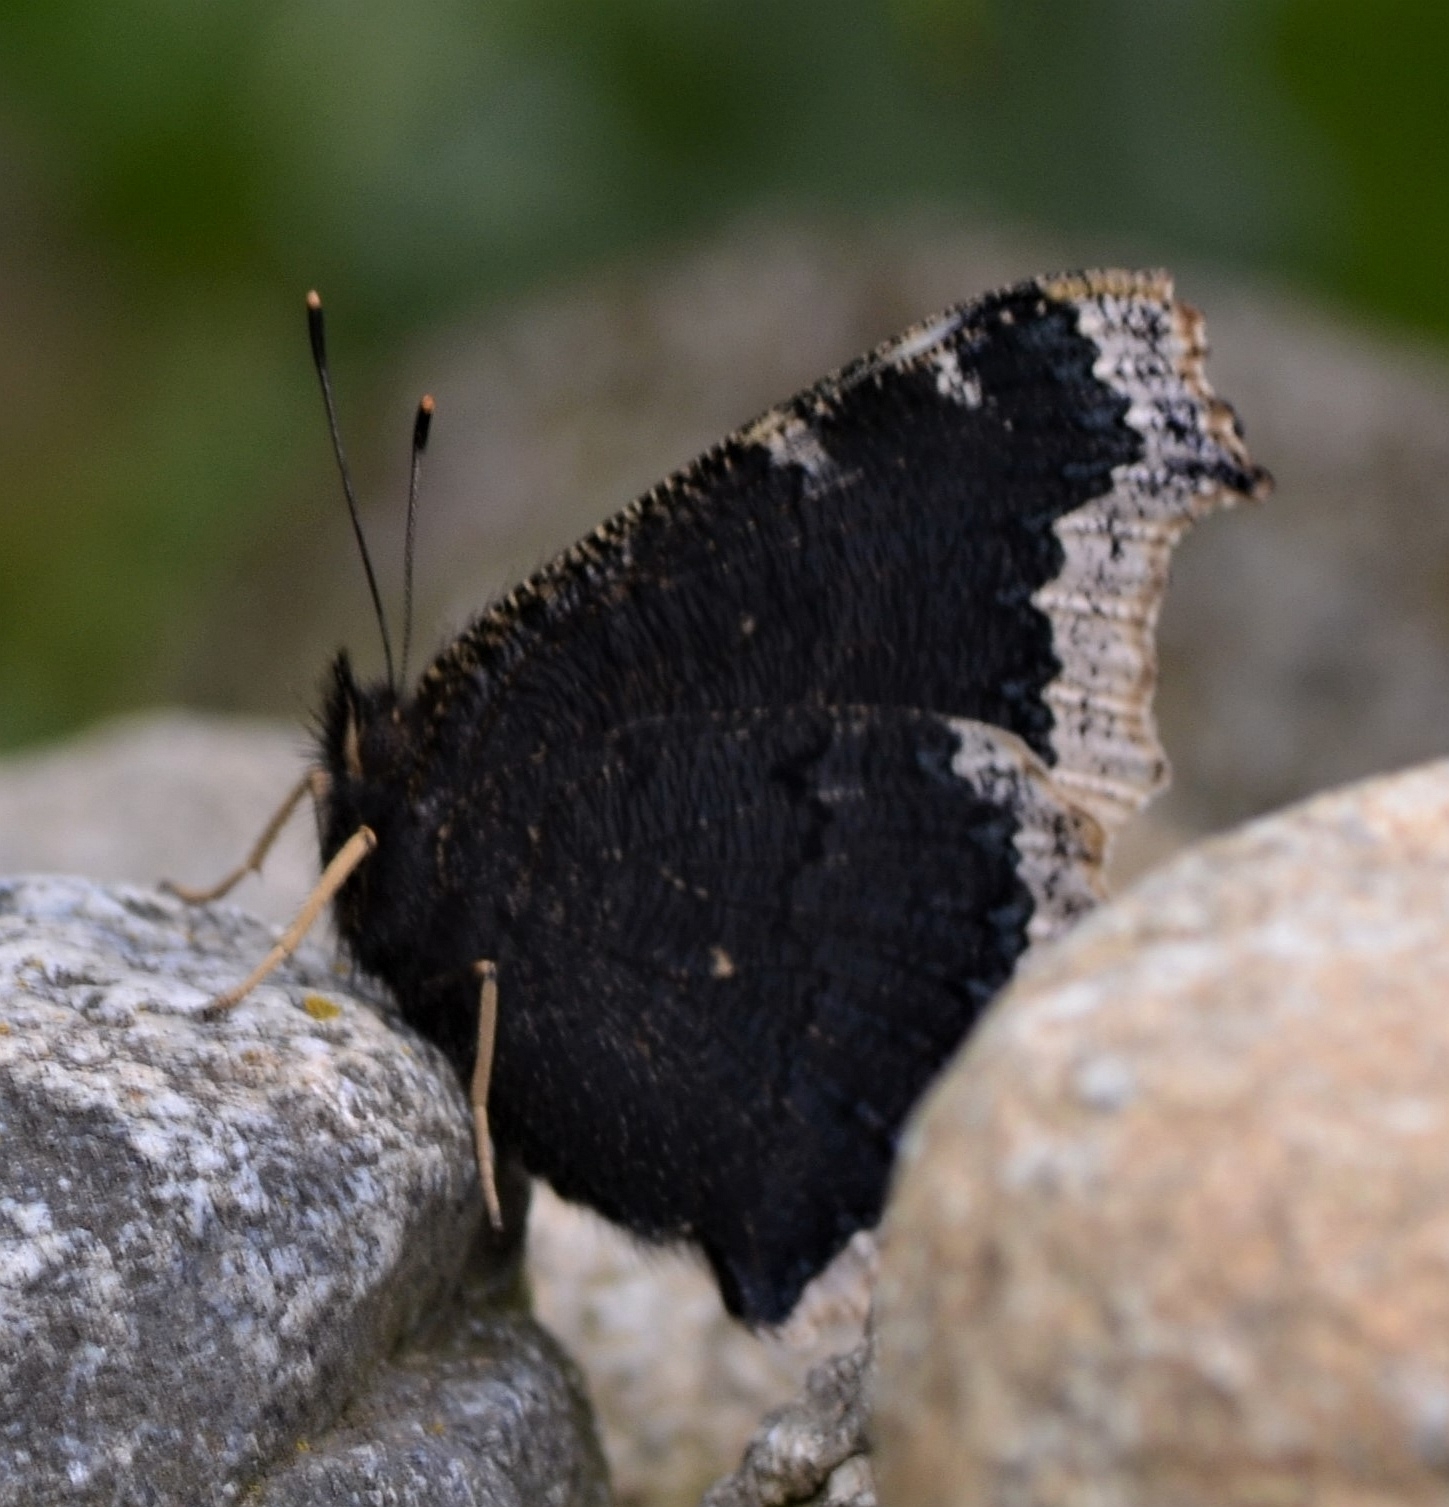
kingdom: Animalia
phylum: Arthropoda
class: Insecta
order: Lepidoptera
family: Nymphalidae
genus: Nymphalis
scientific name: Nymphalis antiopa
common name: Camberwell beauty
